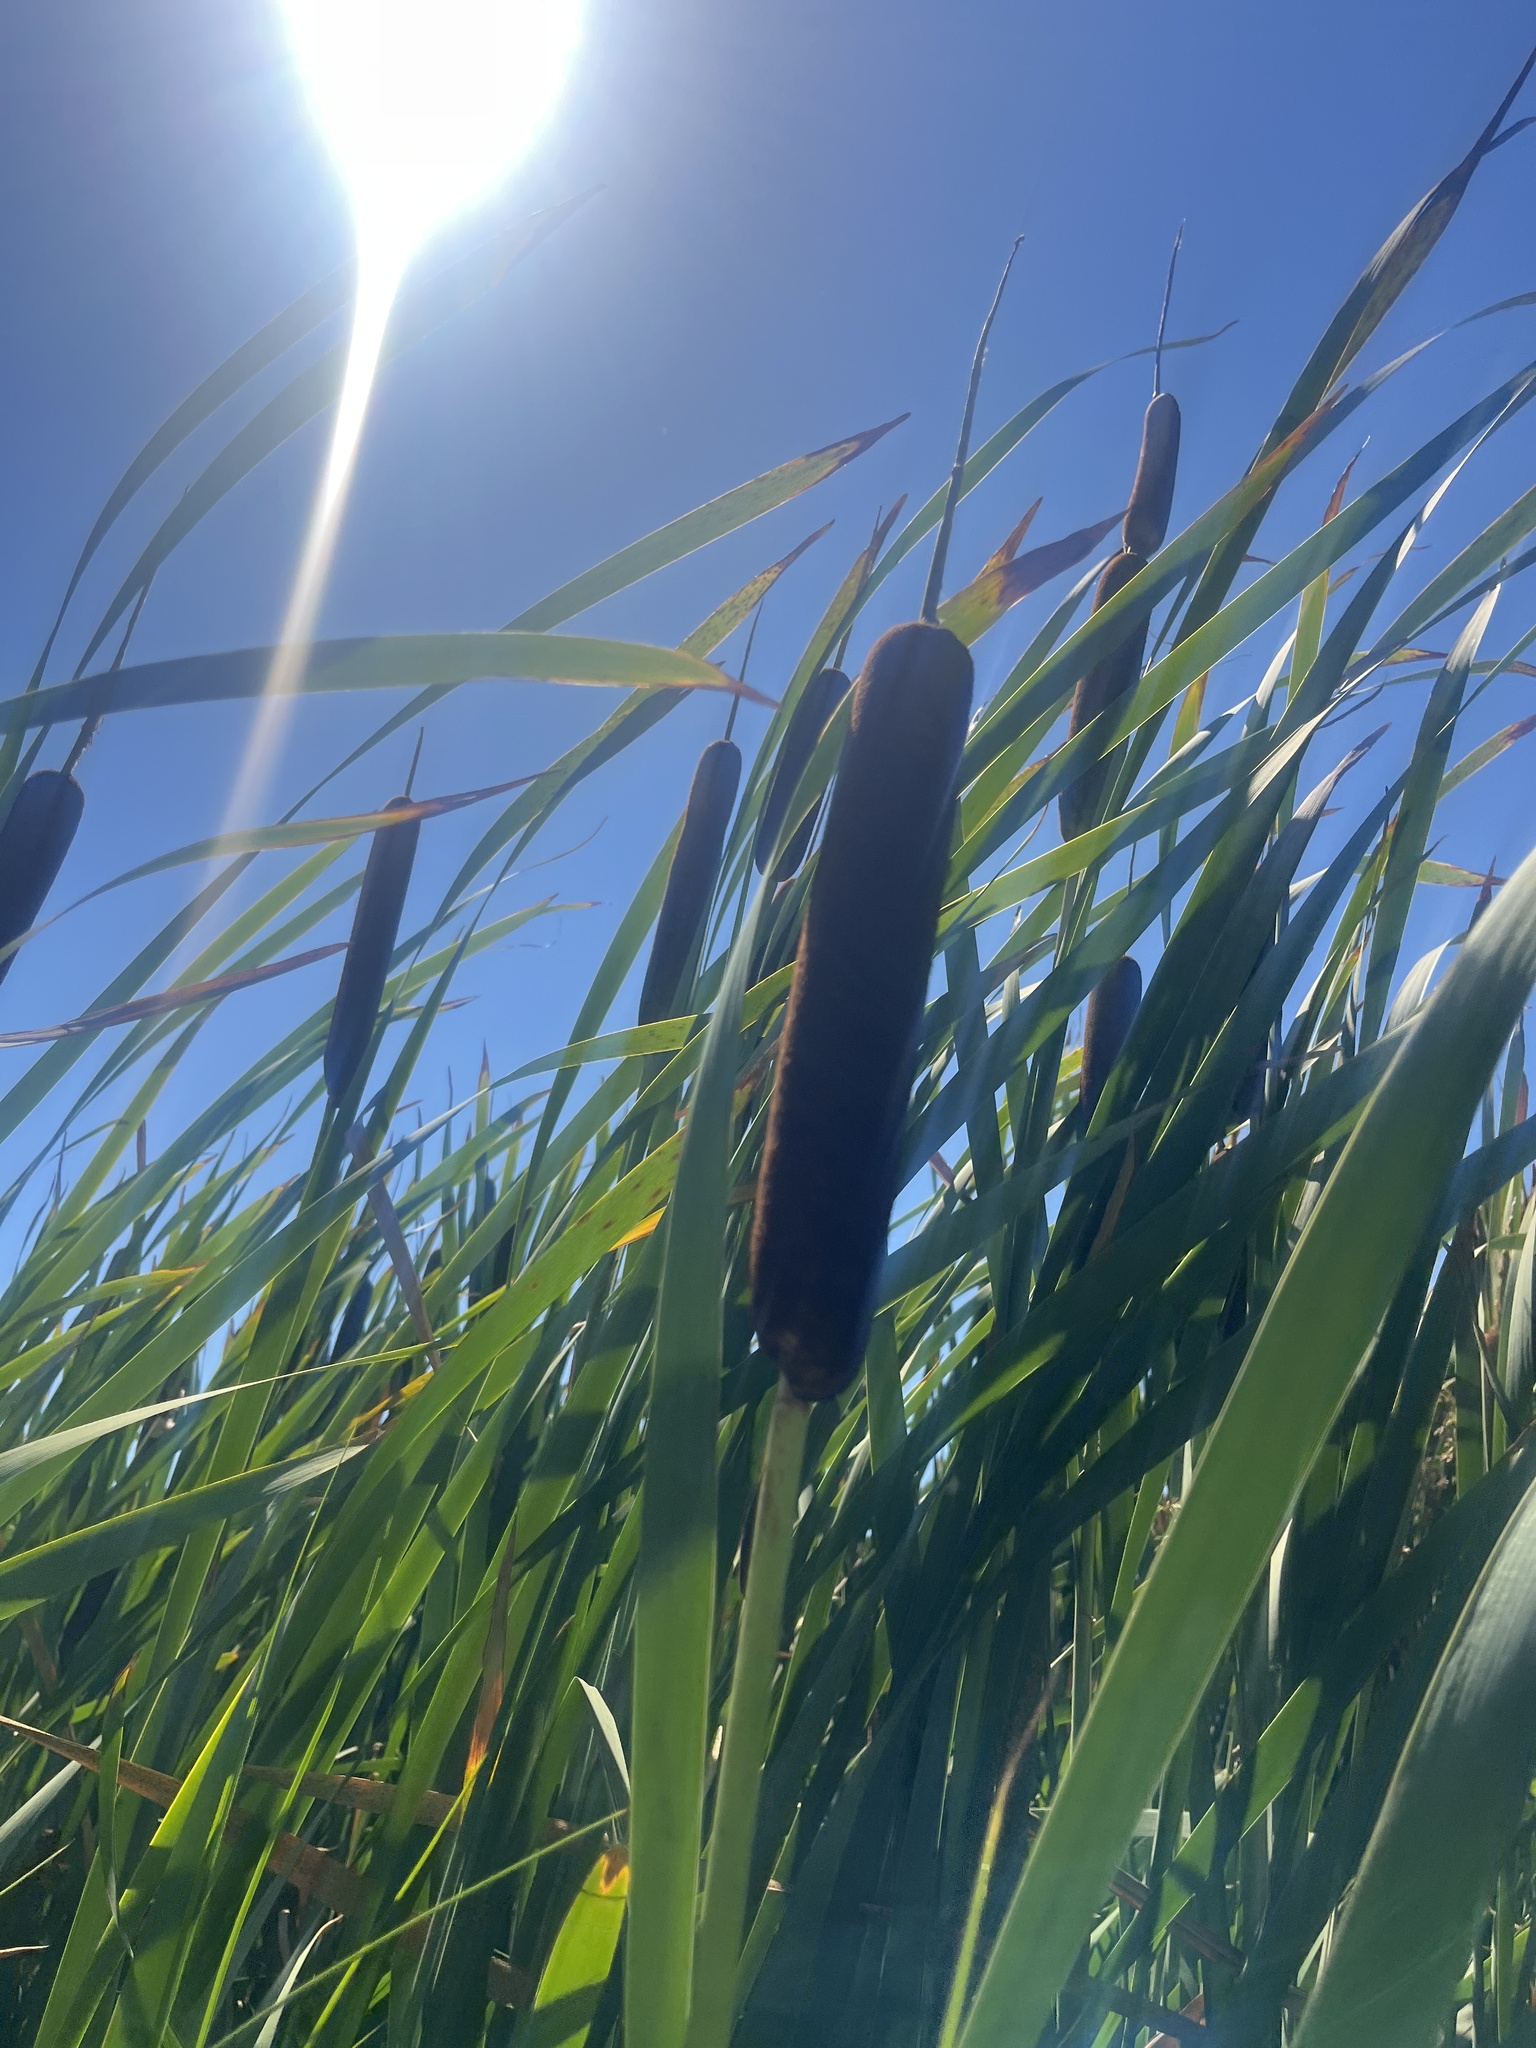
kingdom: Plantae
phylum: Tracheophyta
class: Liliopsida
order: Poales
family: Typhaceae
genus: Typha
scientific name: Typha latifolia
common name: Broadleaf cattail
